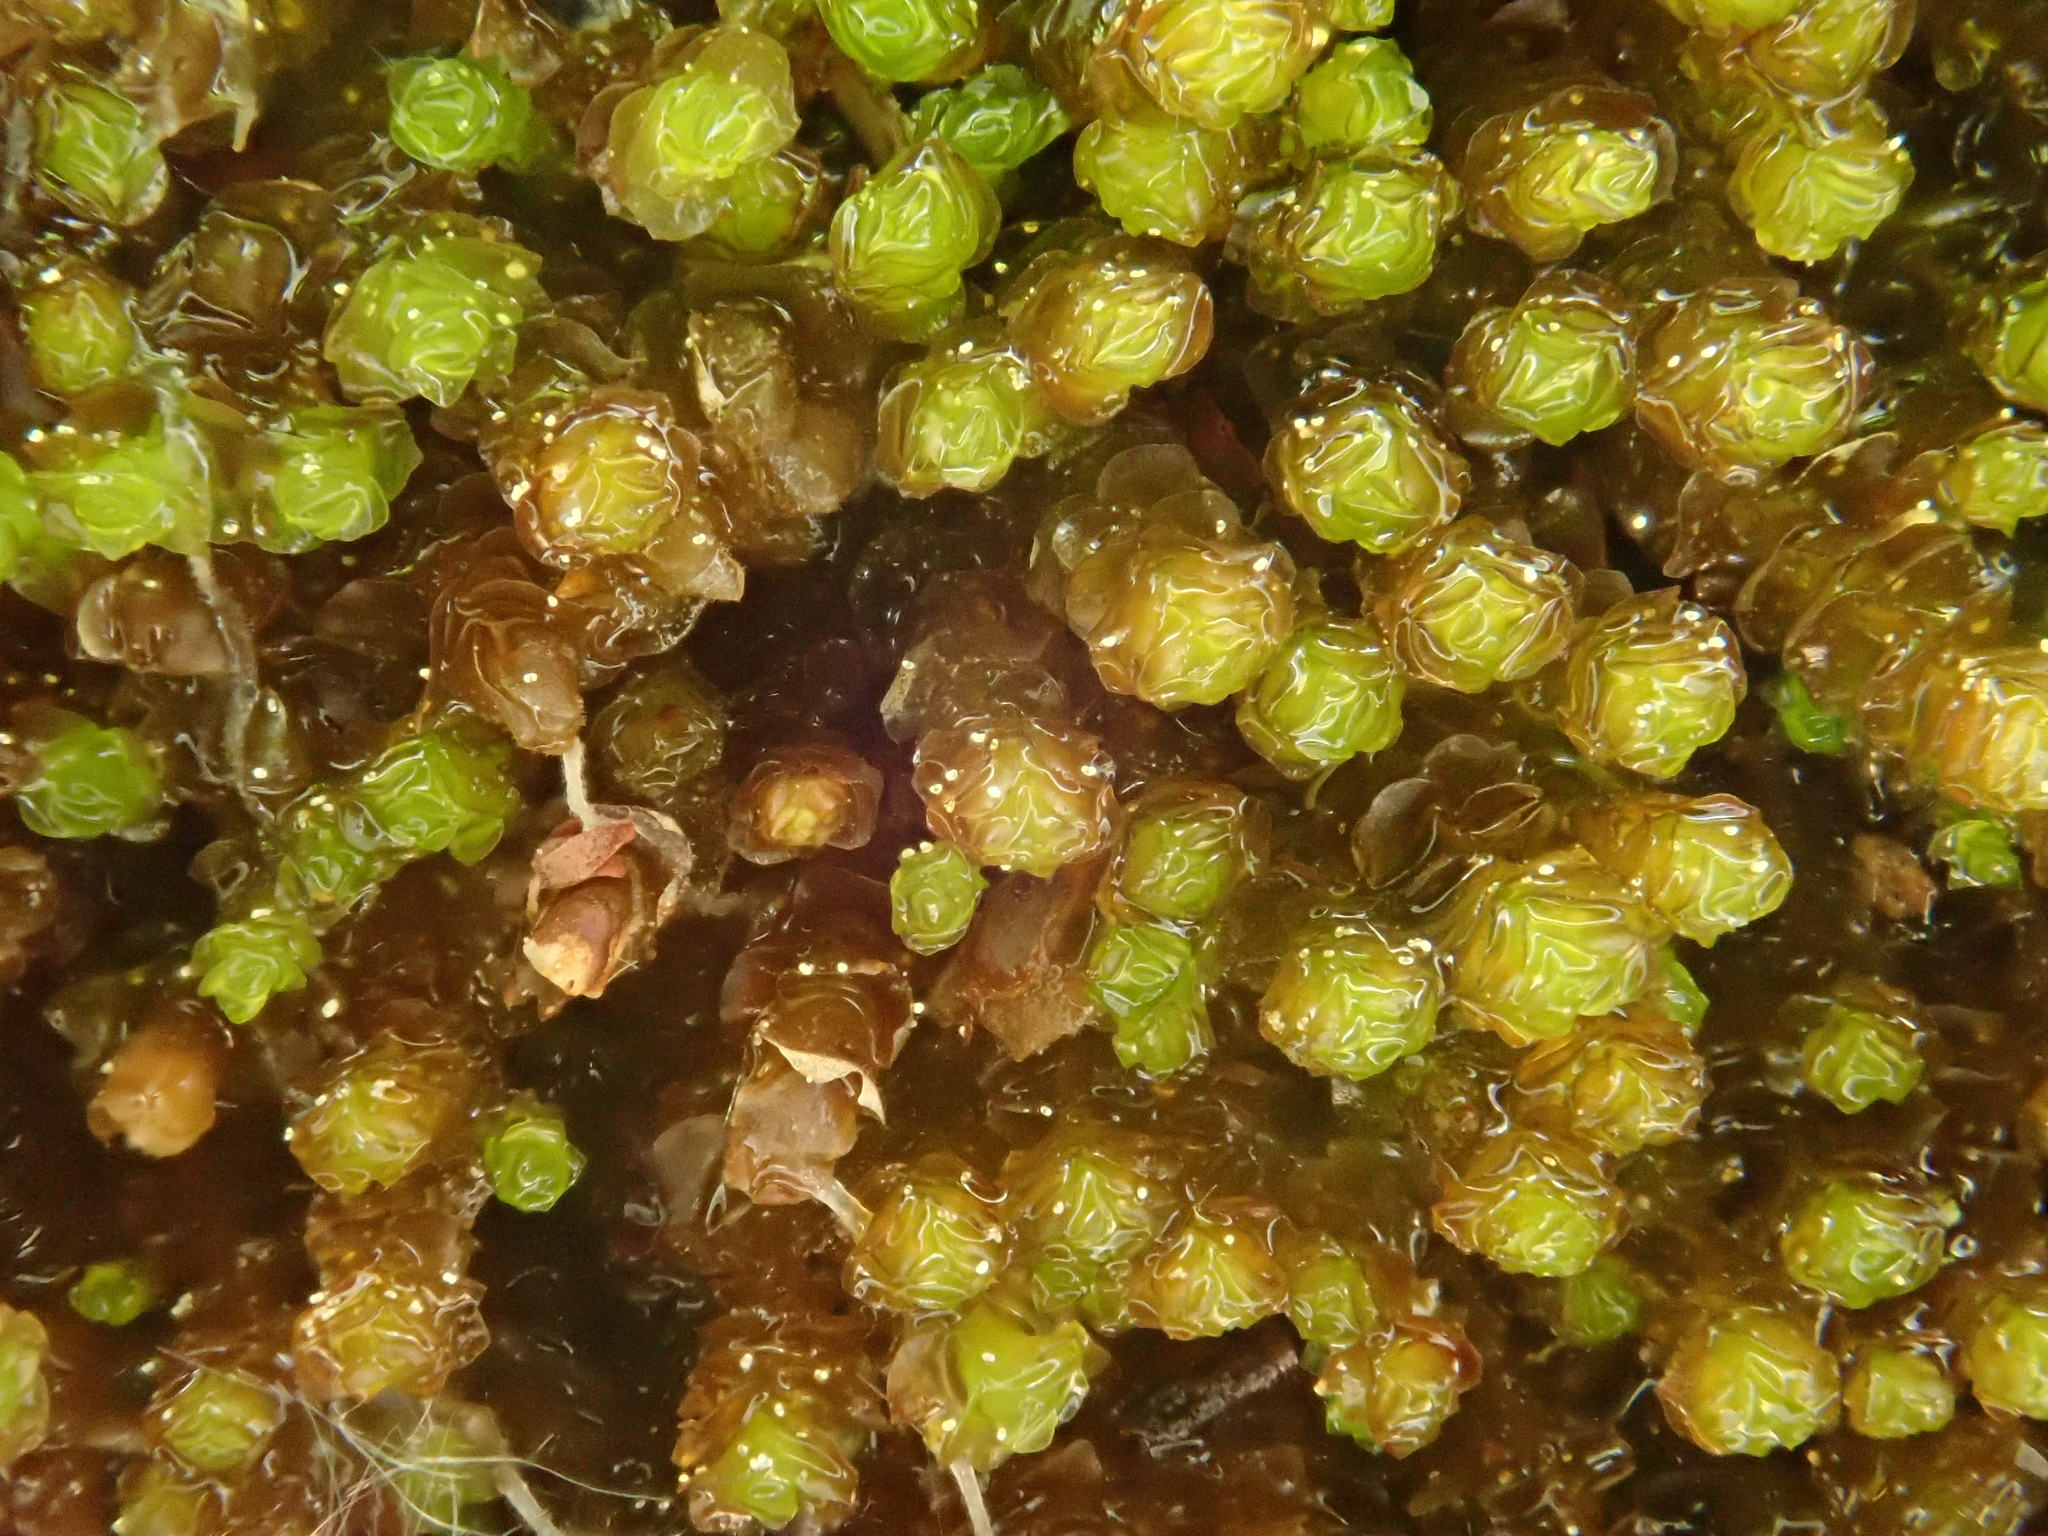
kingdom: Plantae
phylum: Marchantiophyta
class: Jungermanniopsida
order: Jungermanniales
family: Gymnomitriaceae
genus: Marsupella
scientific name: Marsupella emarginata
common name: Notched rustwort
